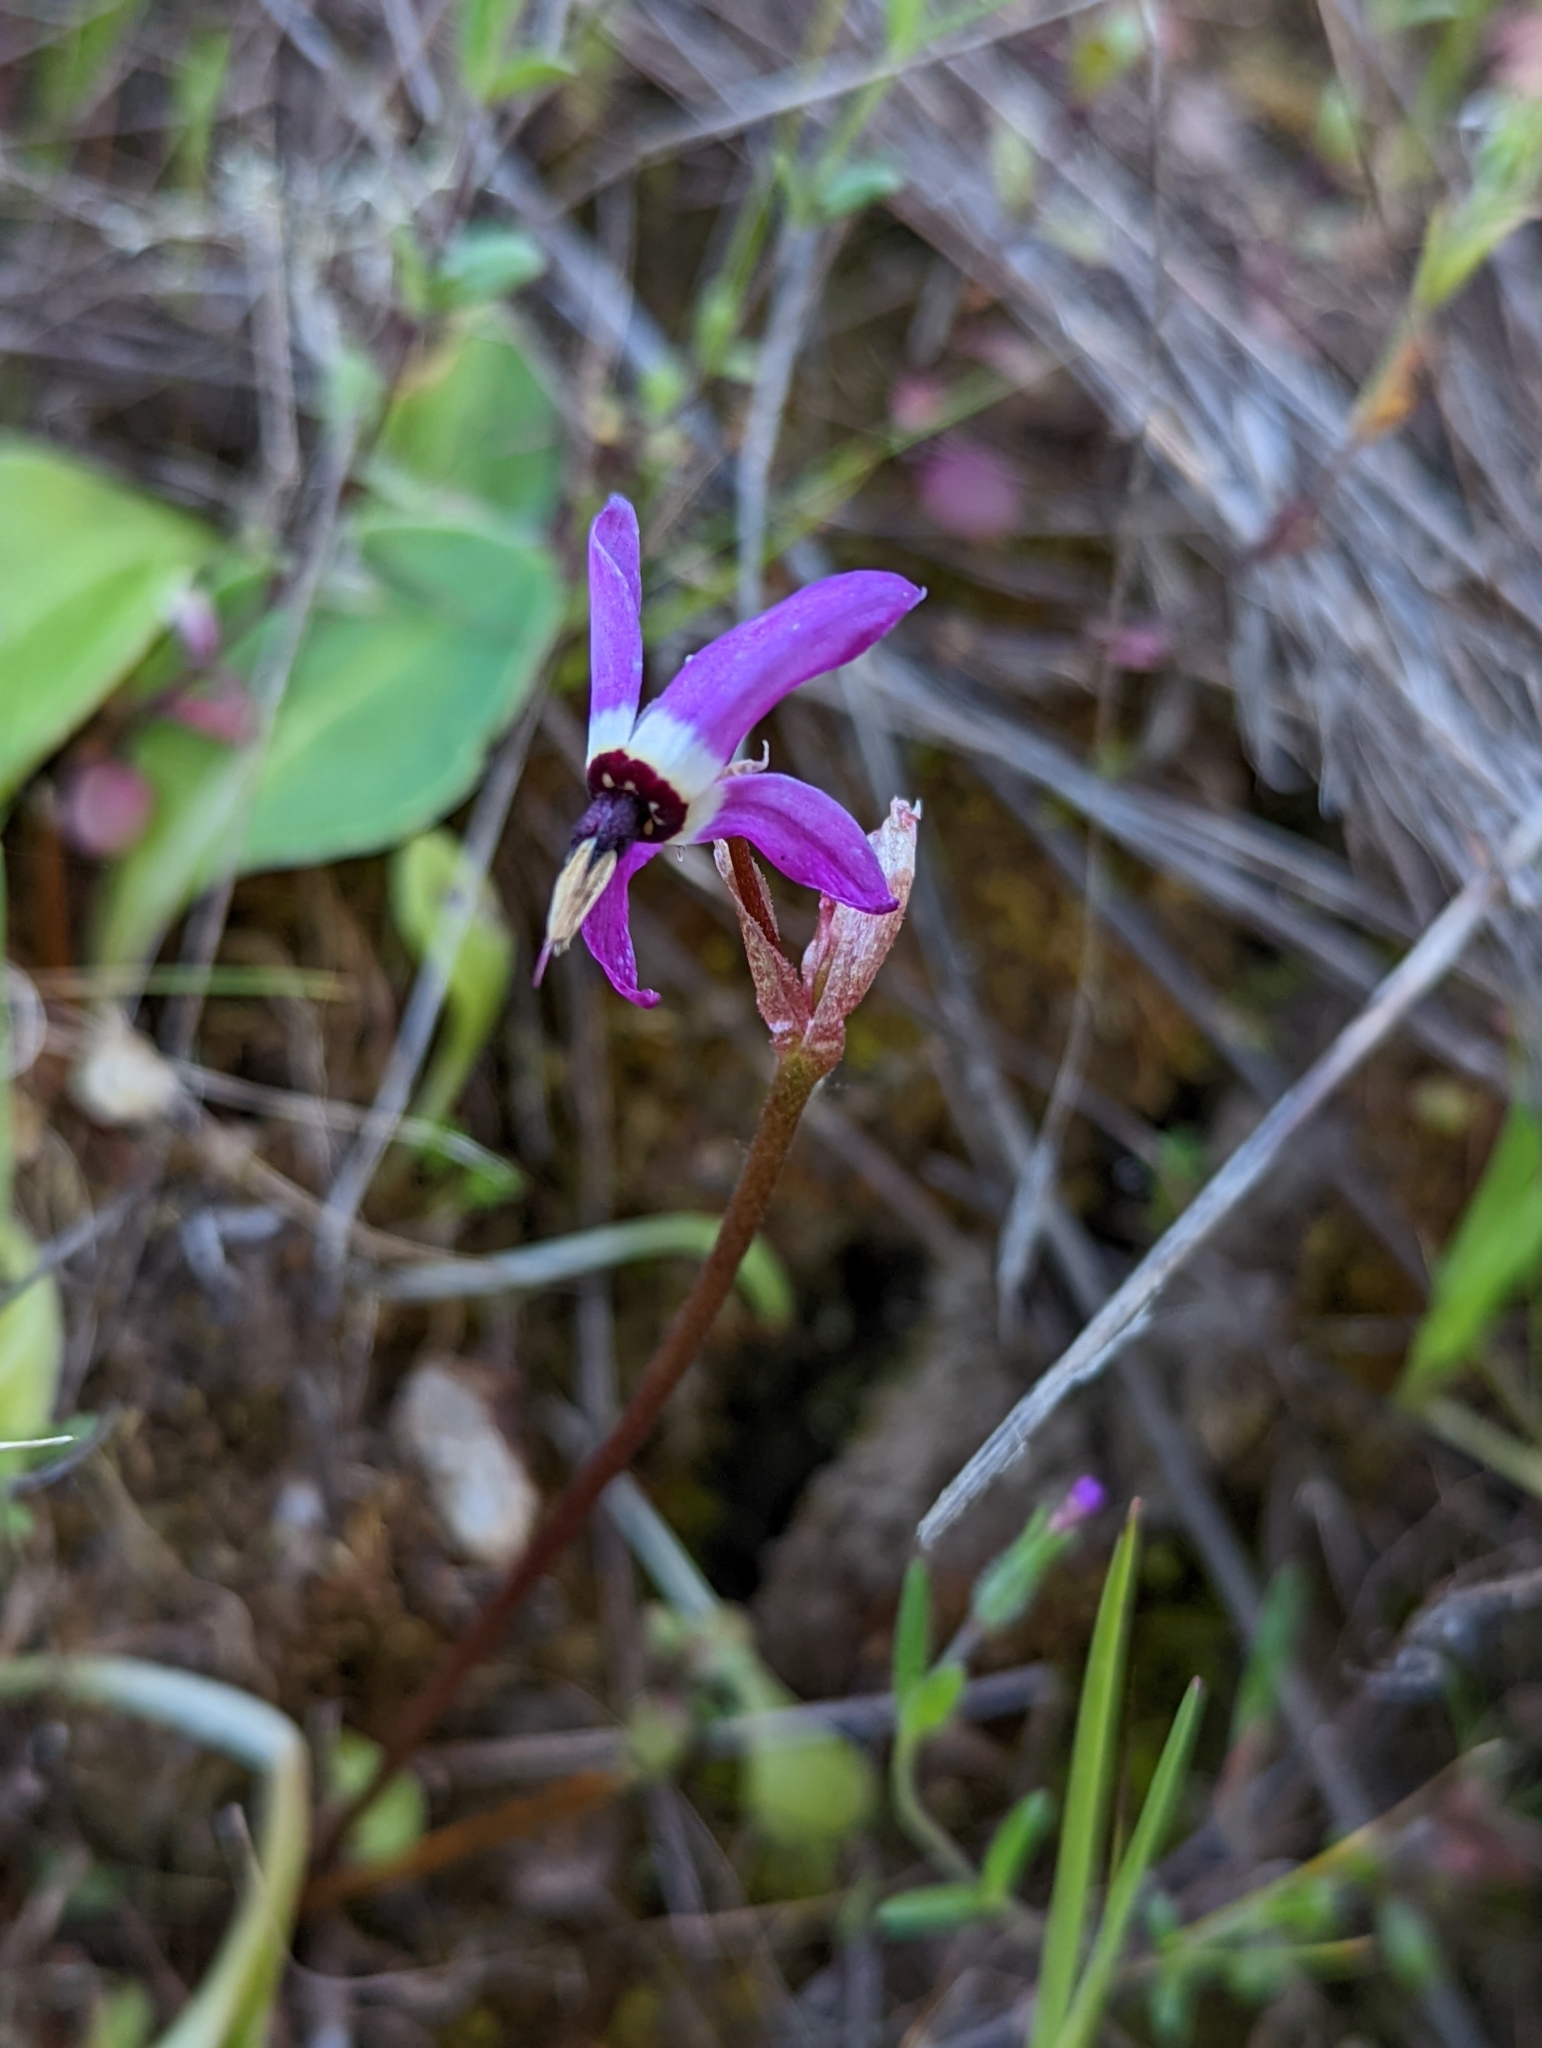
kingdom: Plantae
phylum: Tracheophyta
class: Magnoliopsida
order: Ericales
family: Primulaceae
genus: Dodecatheon
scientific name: Dodecatheon hendersonii
